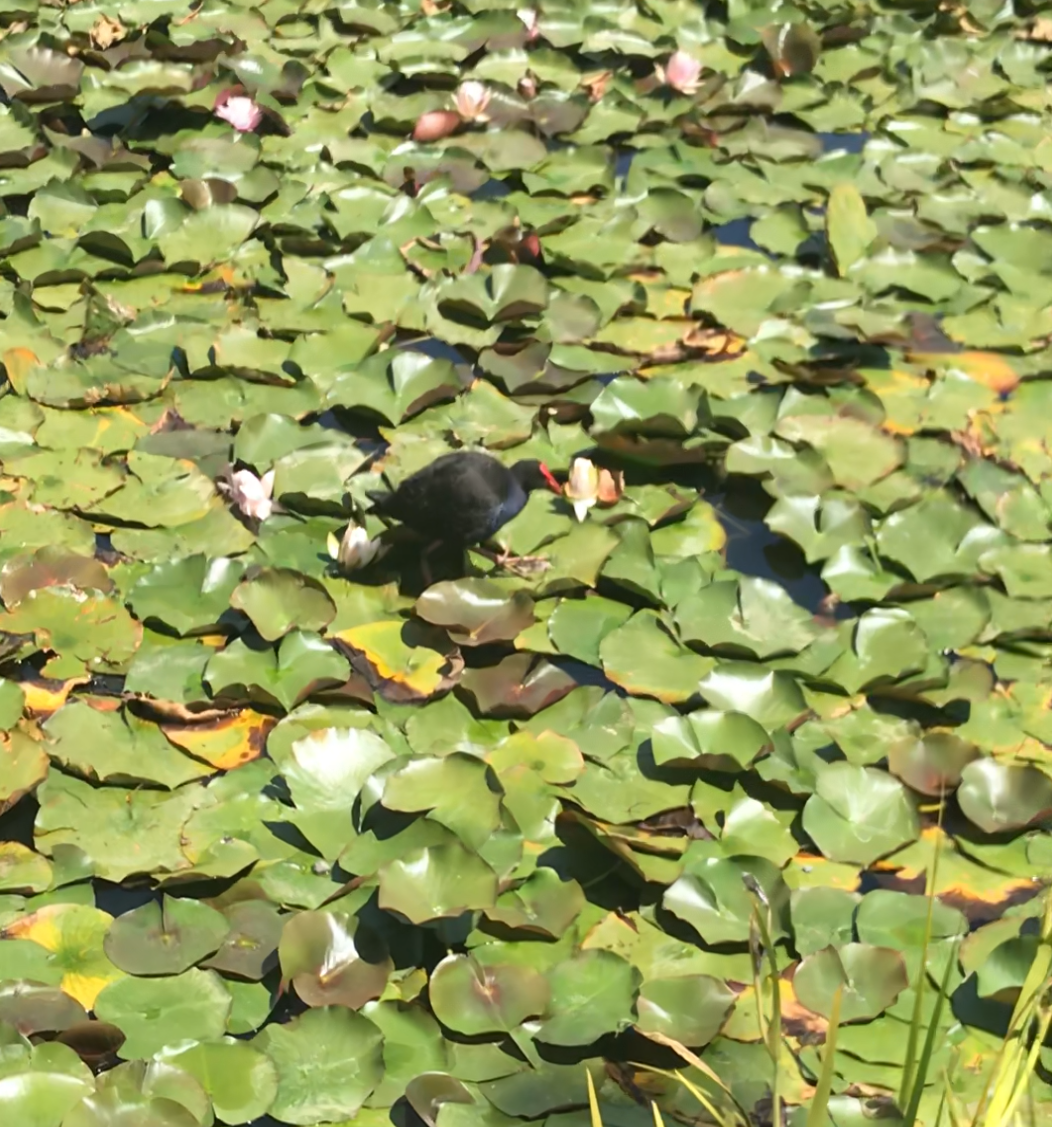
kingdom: Animalia
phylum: Chordata
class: Aves
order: Gruiformes
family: Rallidae
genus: Porphyrio
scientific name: Porphyrio melanotus
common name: Australasian swamphen
